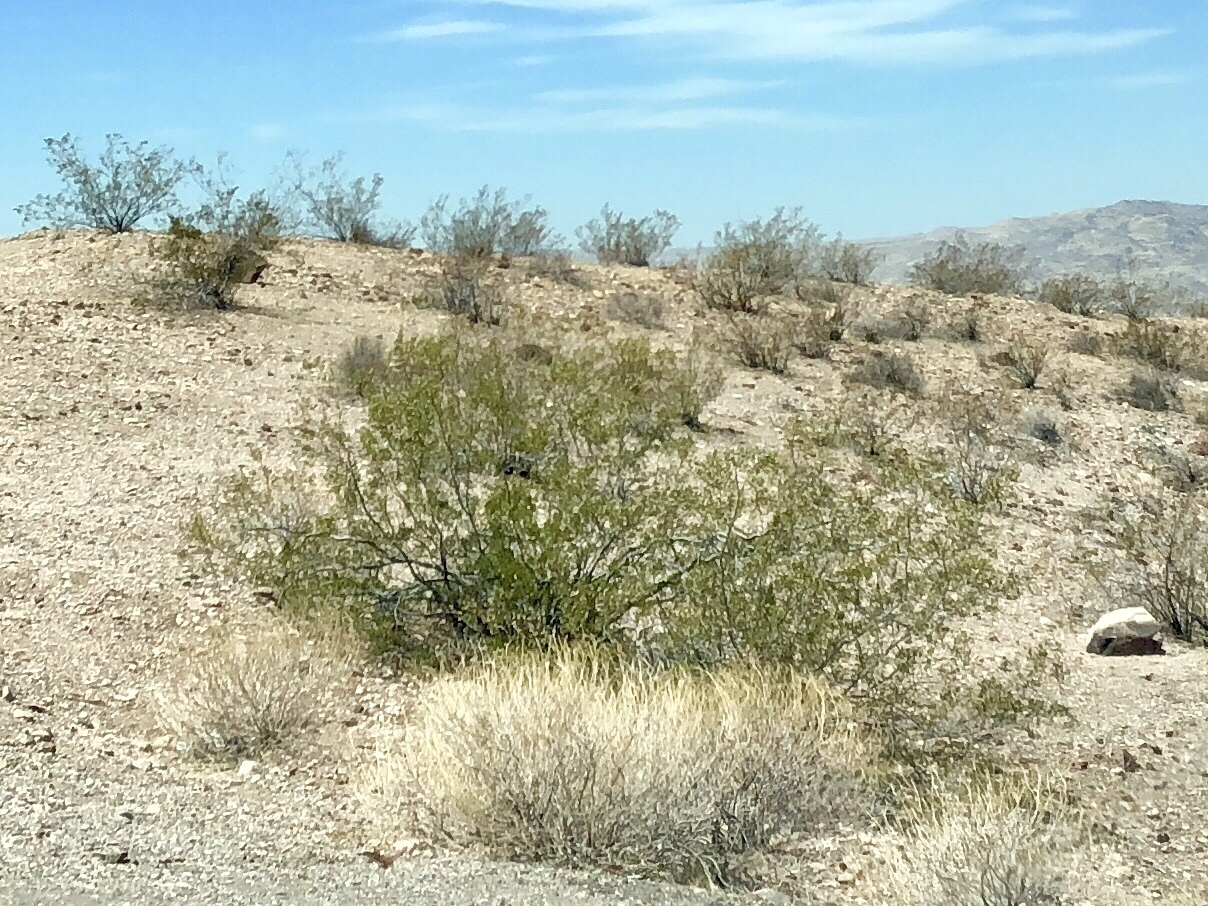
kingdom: Plantae
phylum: Tracheophyta
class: Magnoliopsida
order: Zygophyllales
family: Zygophyllaceae
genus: Larrea
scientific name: Larrea tridentata
